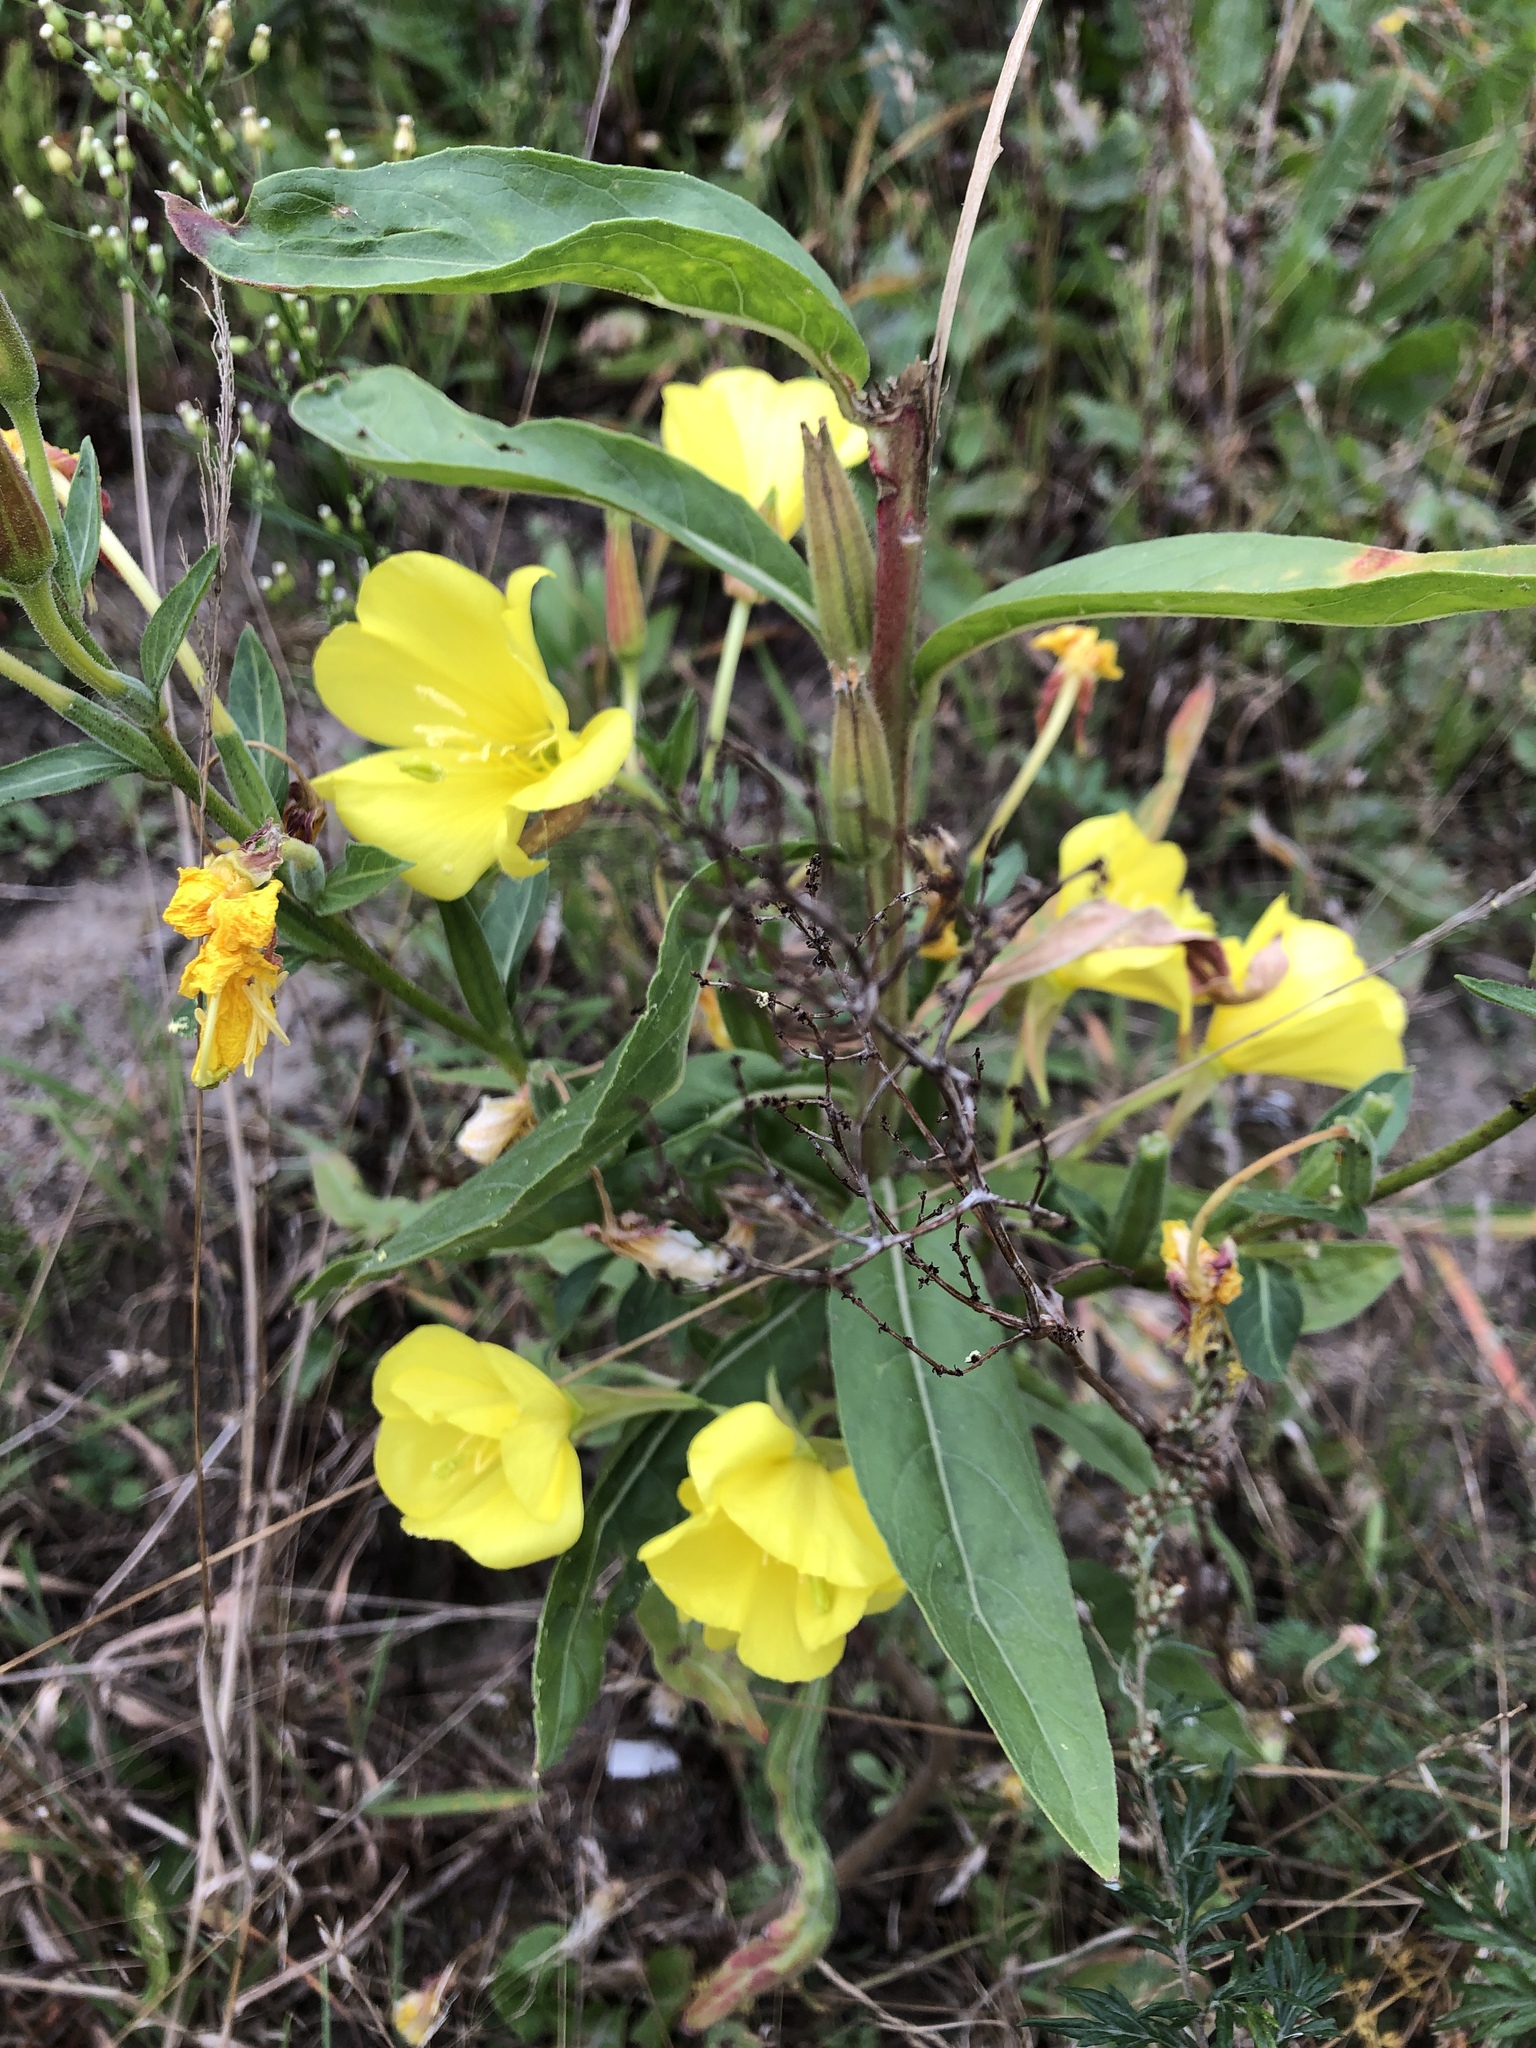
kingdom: Plantae
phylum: Tracheophyta
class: Magnoliopsida
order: Myrtales
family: Onagraceae
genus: Oenothera
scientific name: Oenothera glazioviana
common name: Large-flowered evening-primrose
